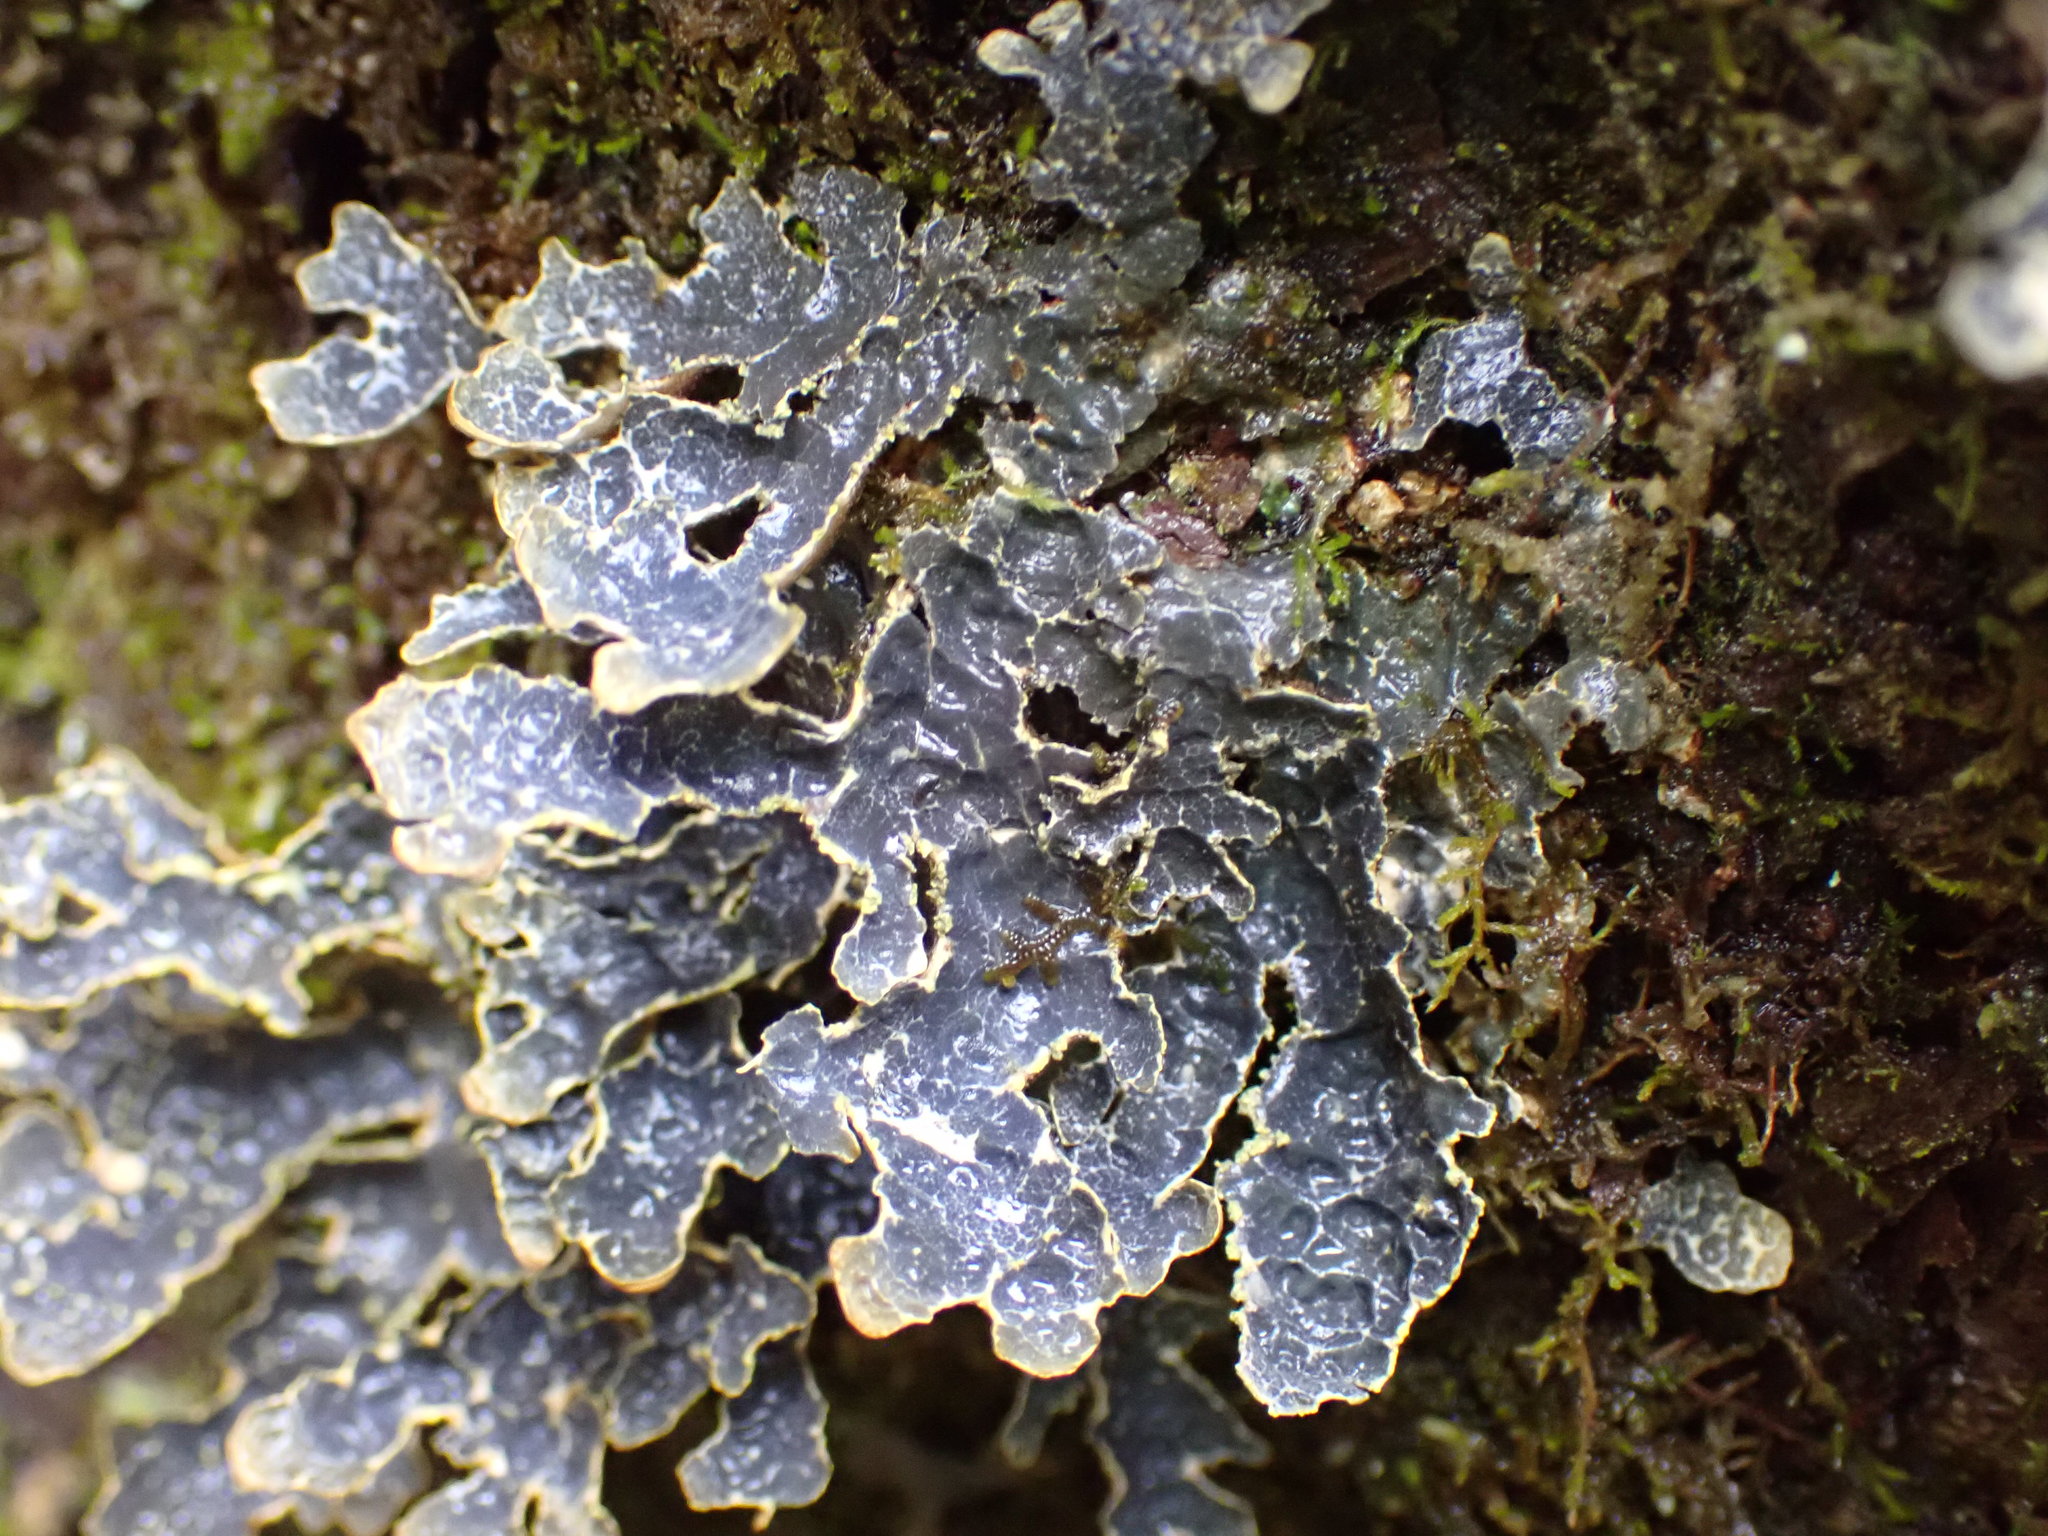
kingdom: Fungi
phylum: Ascomycota
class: Lecanoromycetes
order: Peltigerales
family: Lobariaceae
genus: Lobarina
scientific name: Lobarina scrobiculata
